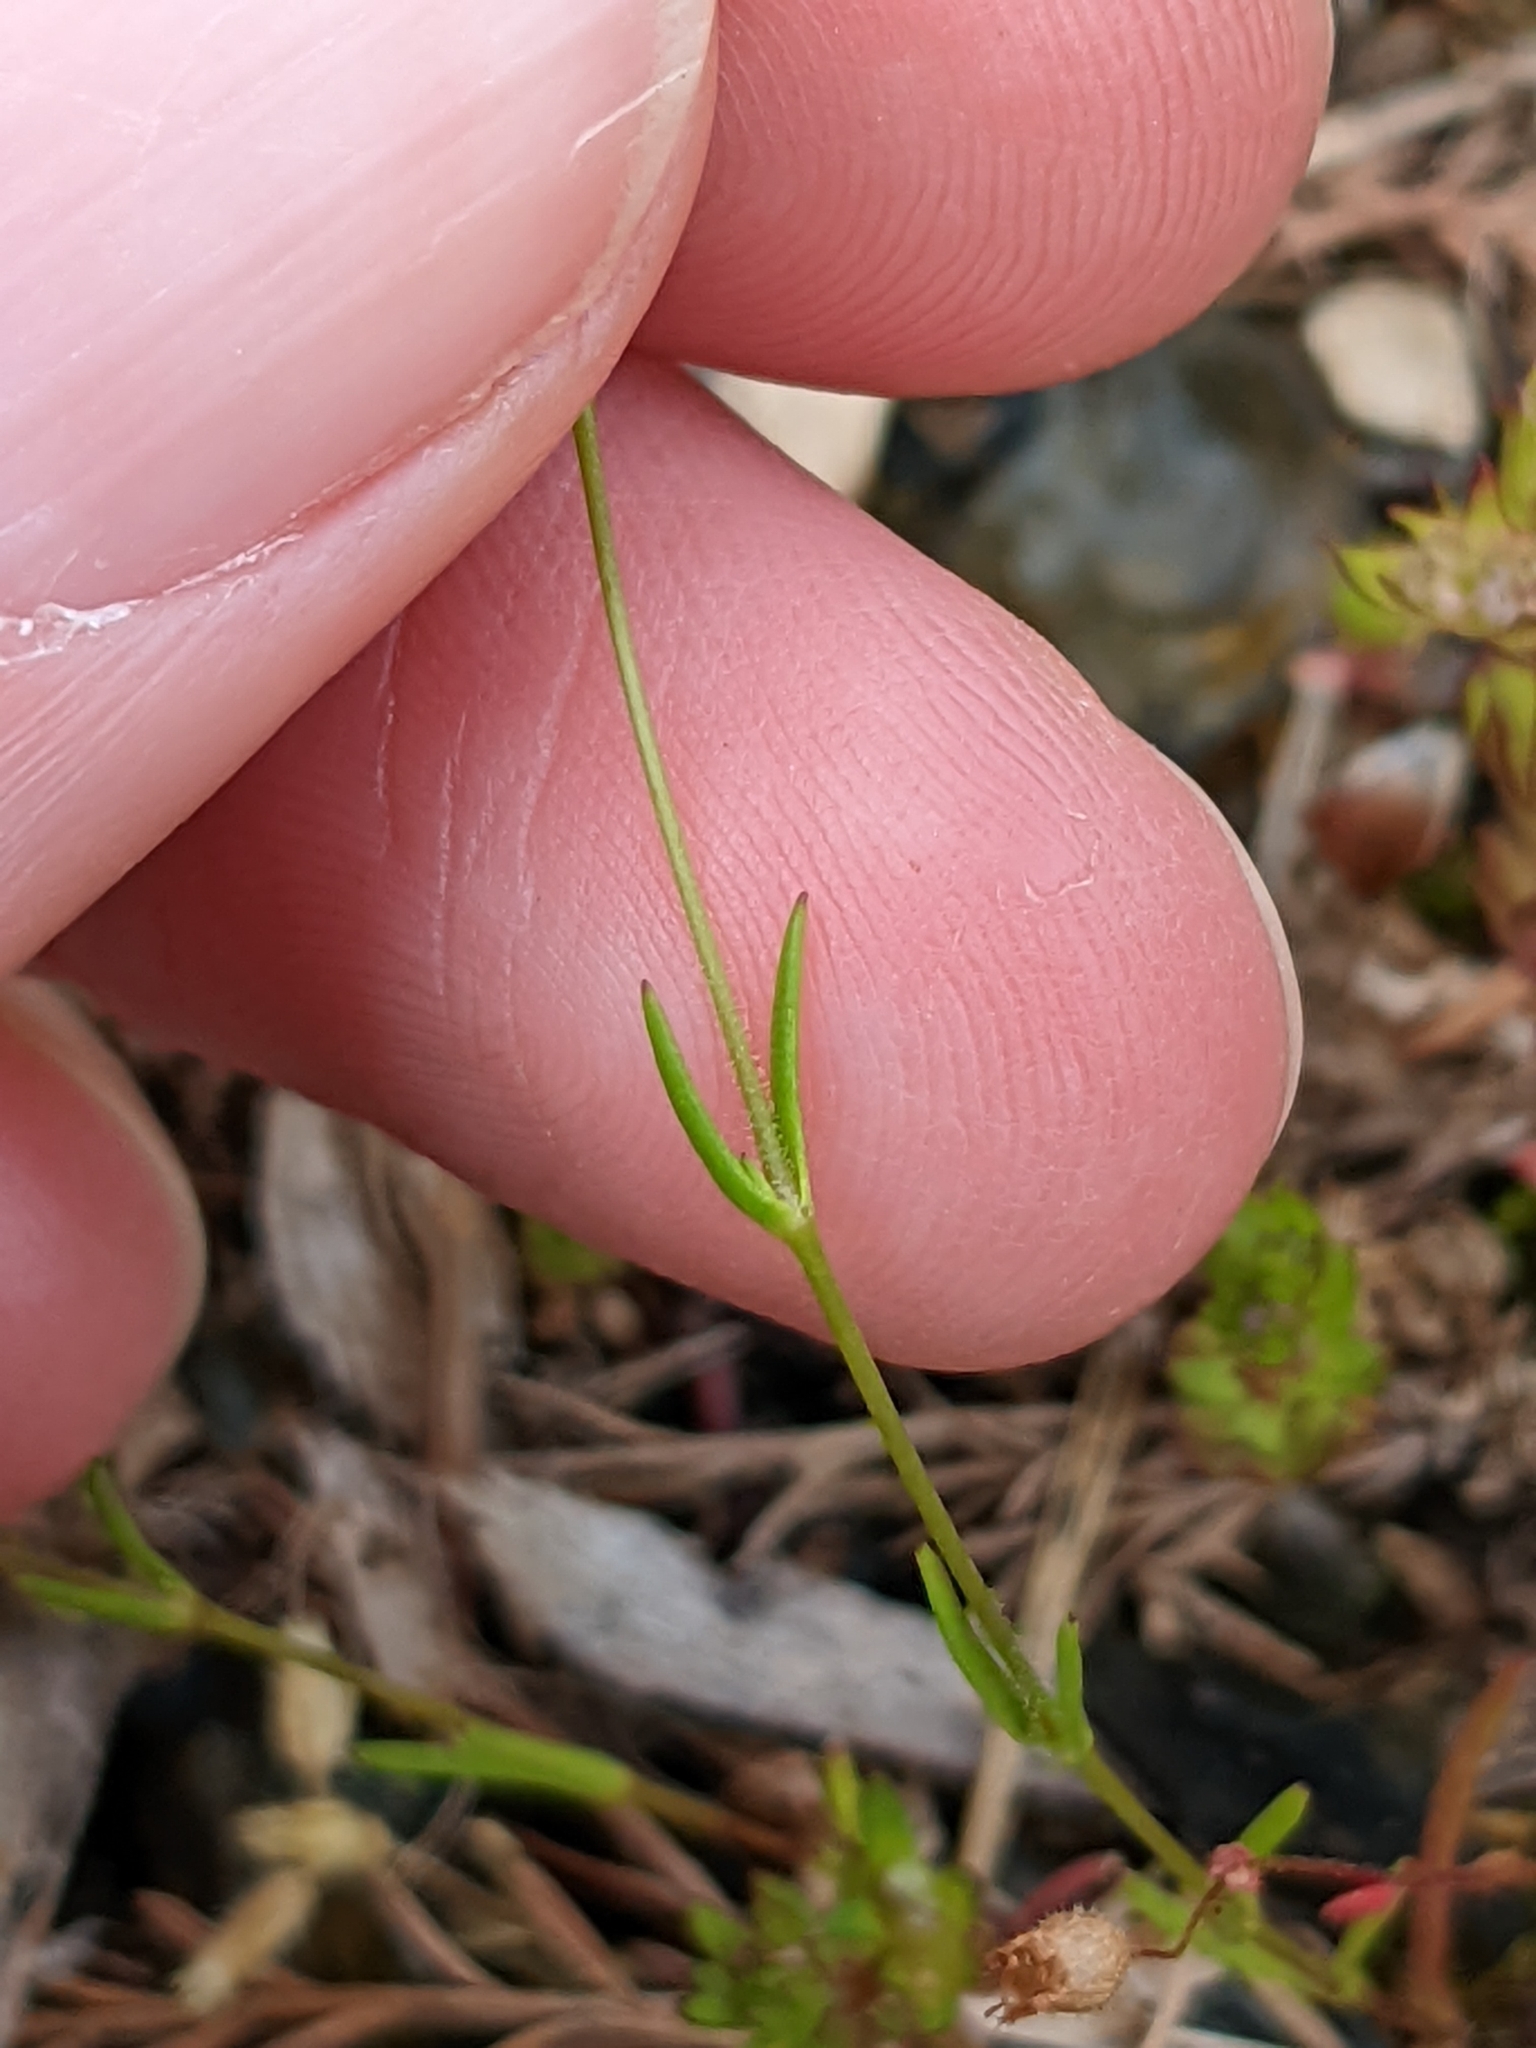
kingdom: Plantae
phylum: Tracheophyta
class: Magnoliopsida
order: Caryophyllales
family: Caryophyllaceae
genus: Mononeuria
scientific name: Mononeuria patula
